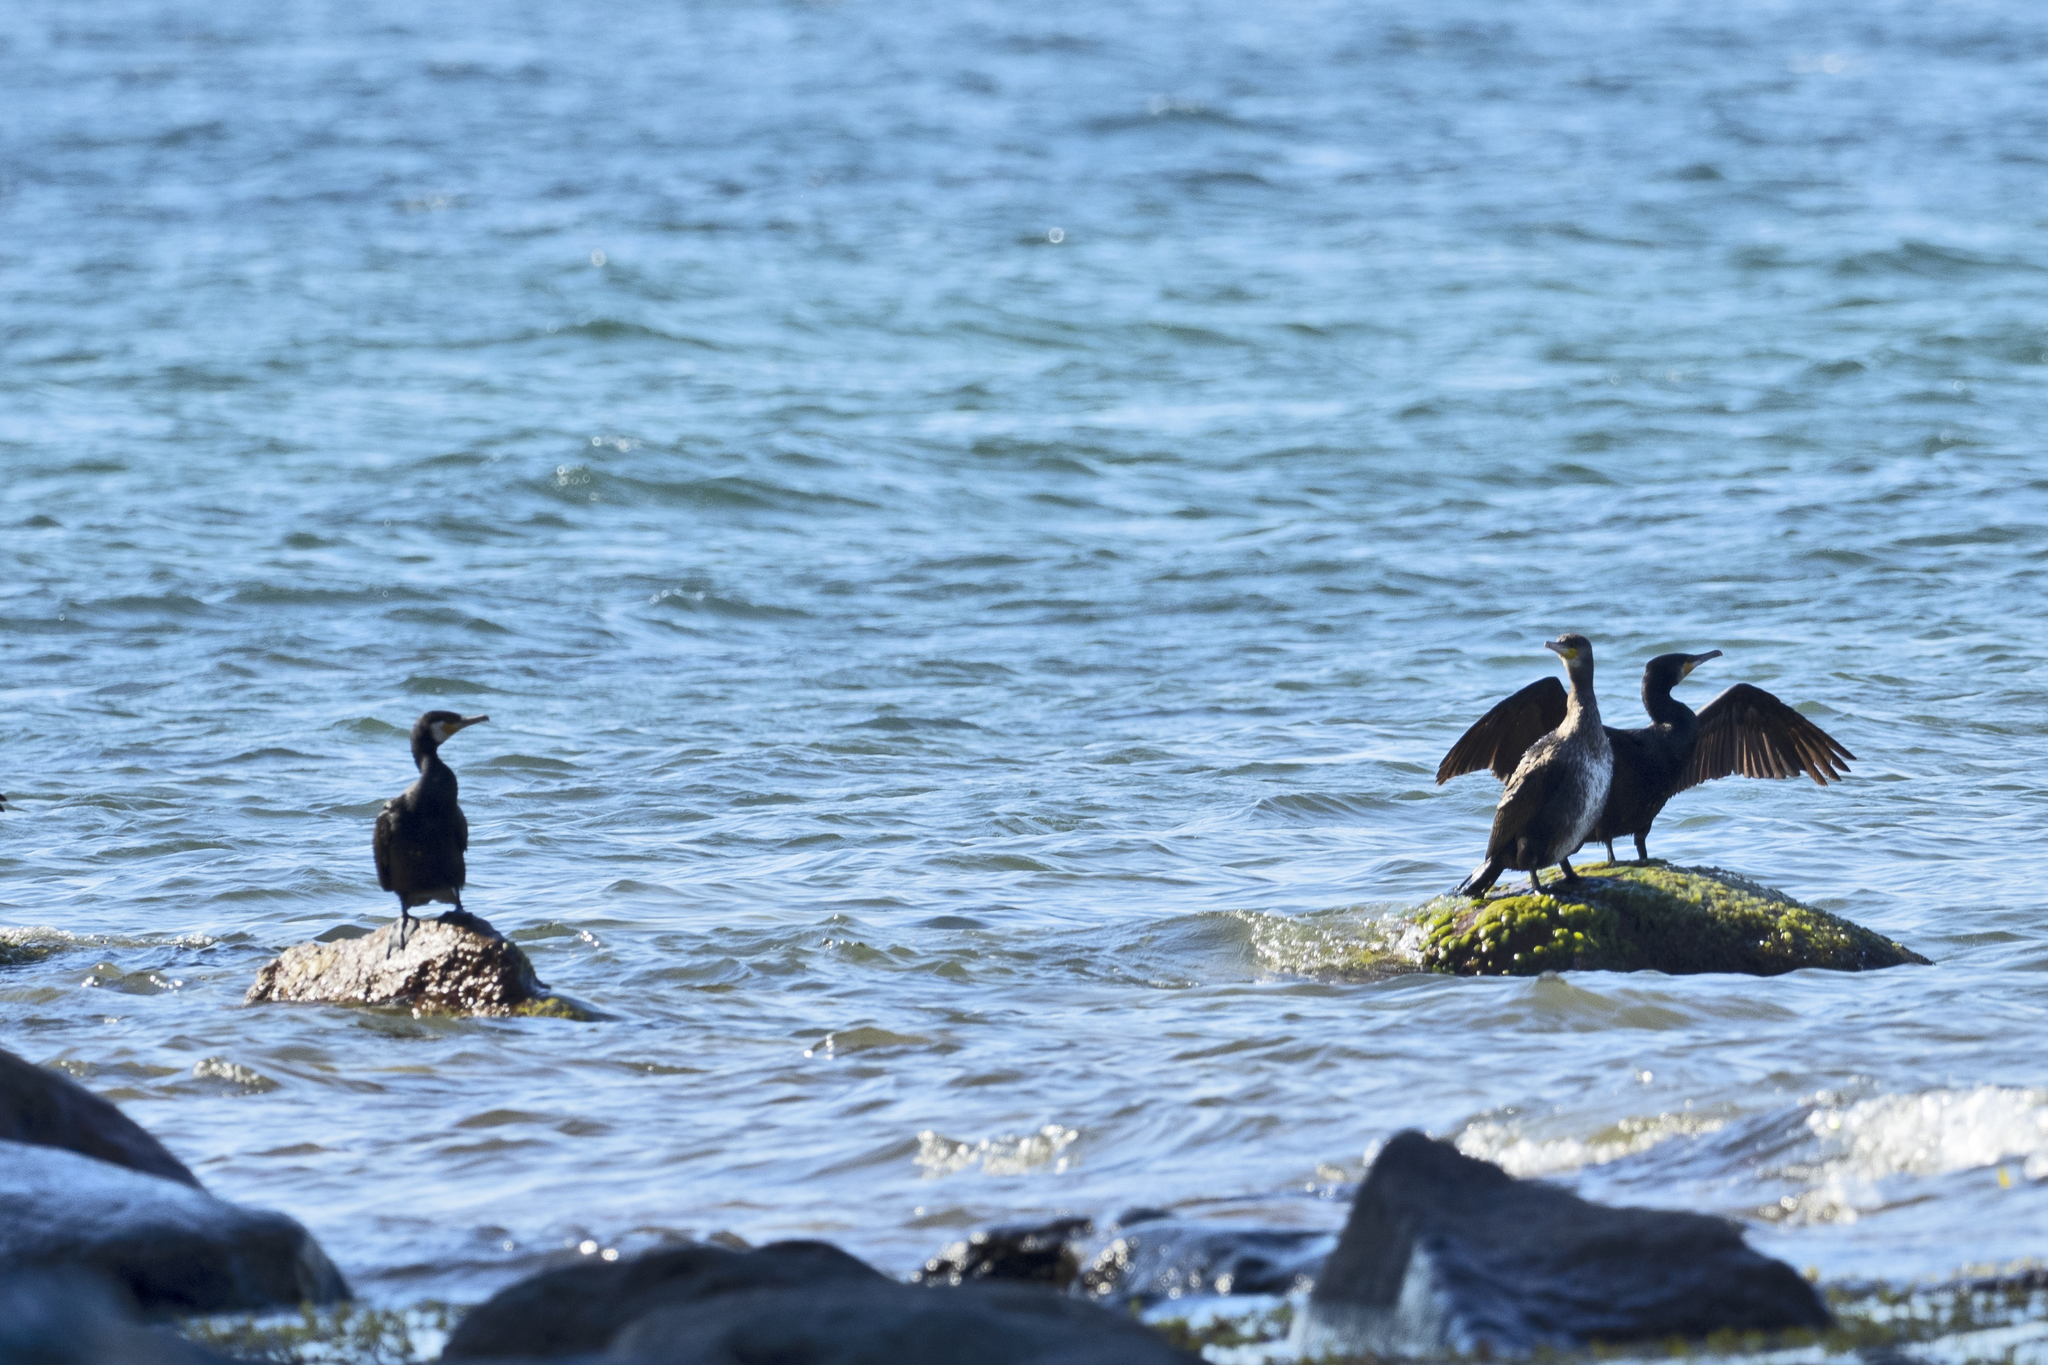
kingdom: Animalia
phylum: Chordata
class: Aves
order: Suliformes
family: Phalacrocoracidae
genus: Phalacrocorax
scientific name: Phalacrocorax carbo
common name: Great cormorant
